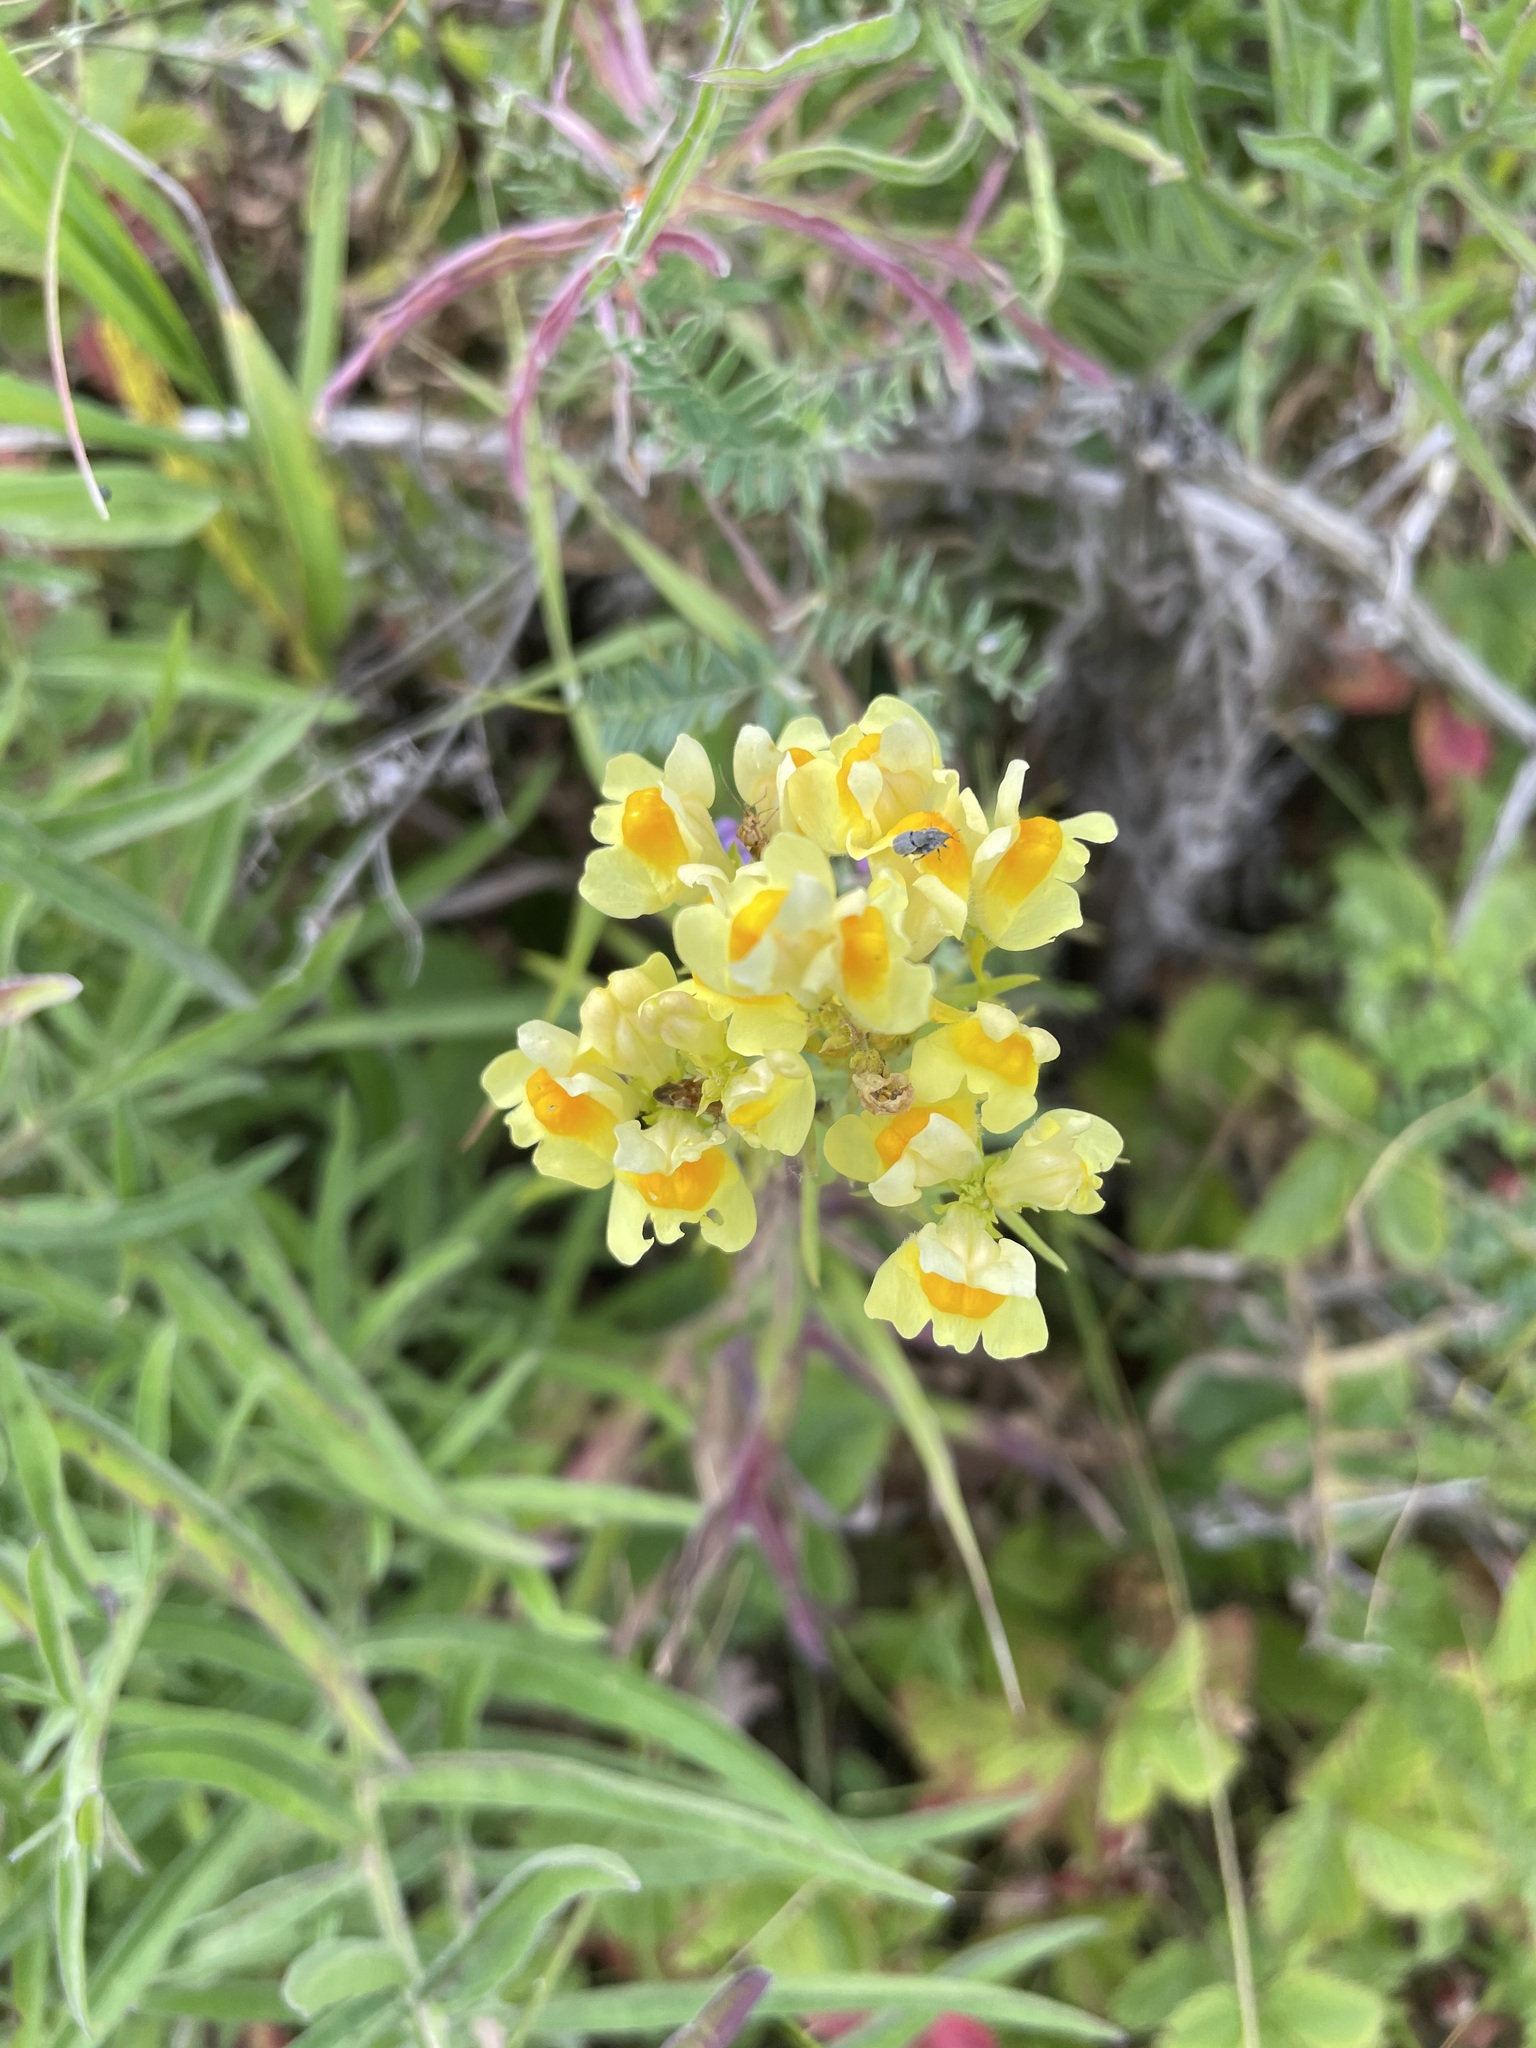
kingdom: Plantae
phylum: Tracheophyta
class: Magnoliopsida
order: Lamiales
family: Plantaginaceae
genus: Linaria
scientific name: Linaria vulgaris
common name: Butter and eggs
